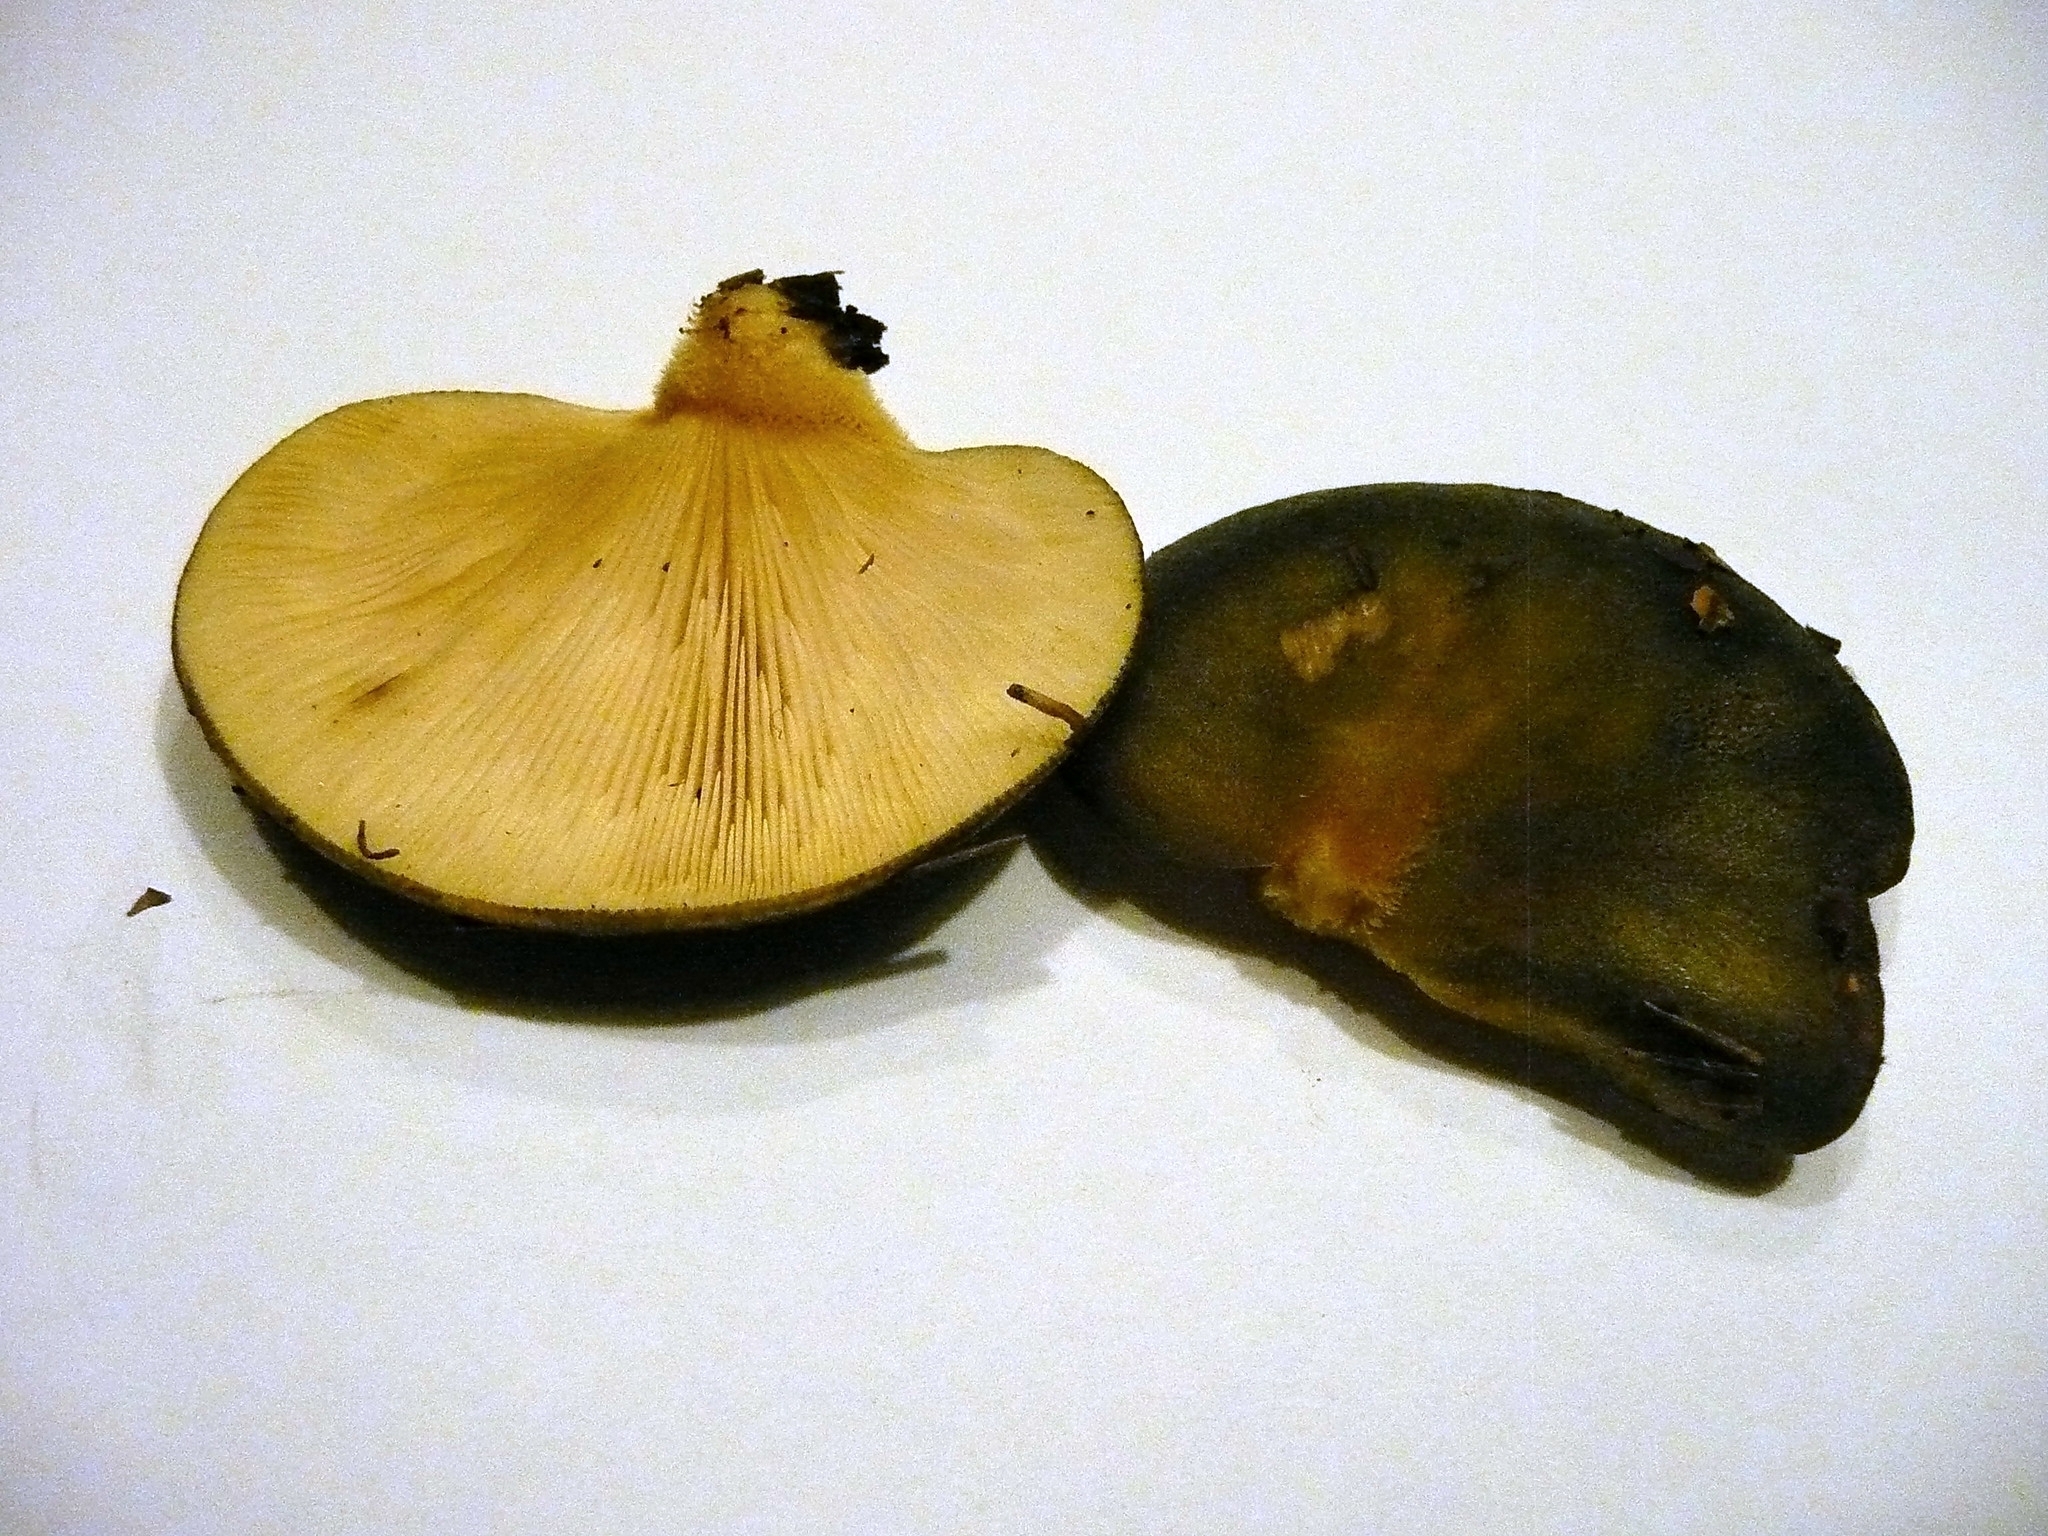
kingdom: Fungi
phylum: Basidiomycota
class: Agaricomycetes
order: Agaricales
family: Sarcomyxaceae
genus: Sarcomyxa
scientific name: Sarcomyxa serotina
